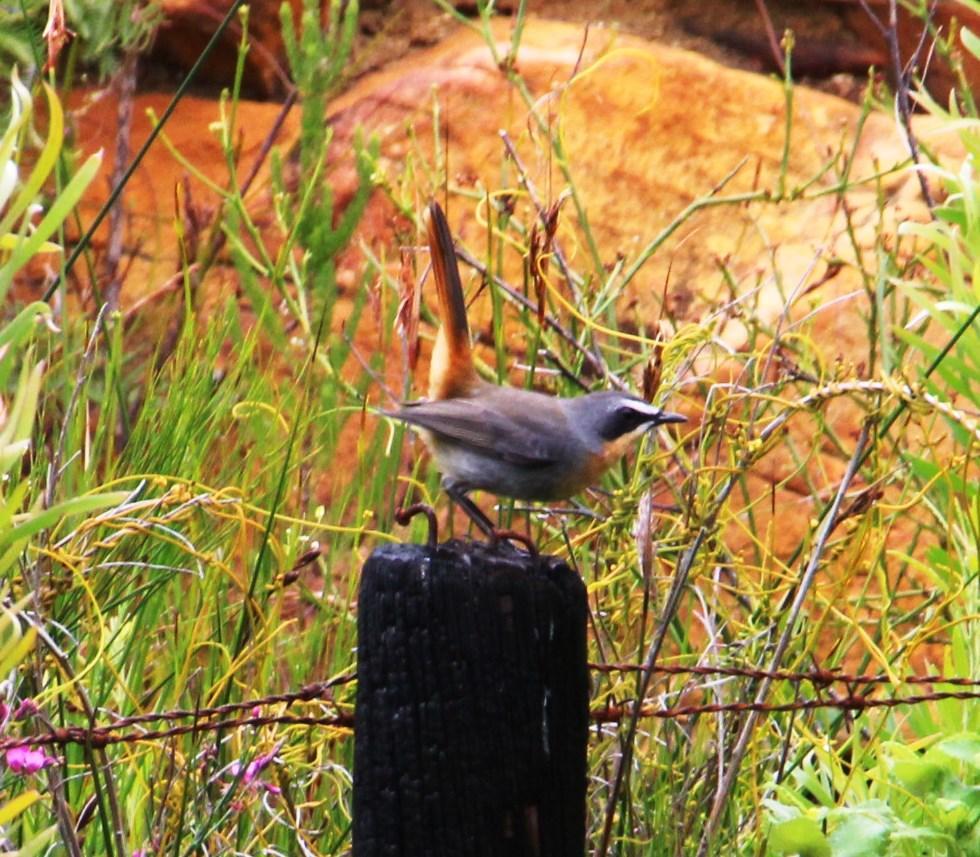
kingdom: Animalia
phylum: Chordata
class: Aves
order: Passeriformes
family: Muscicapidae
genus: Cossypha
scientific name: Cossypha caffra
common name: Cape robin-chat
